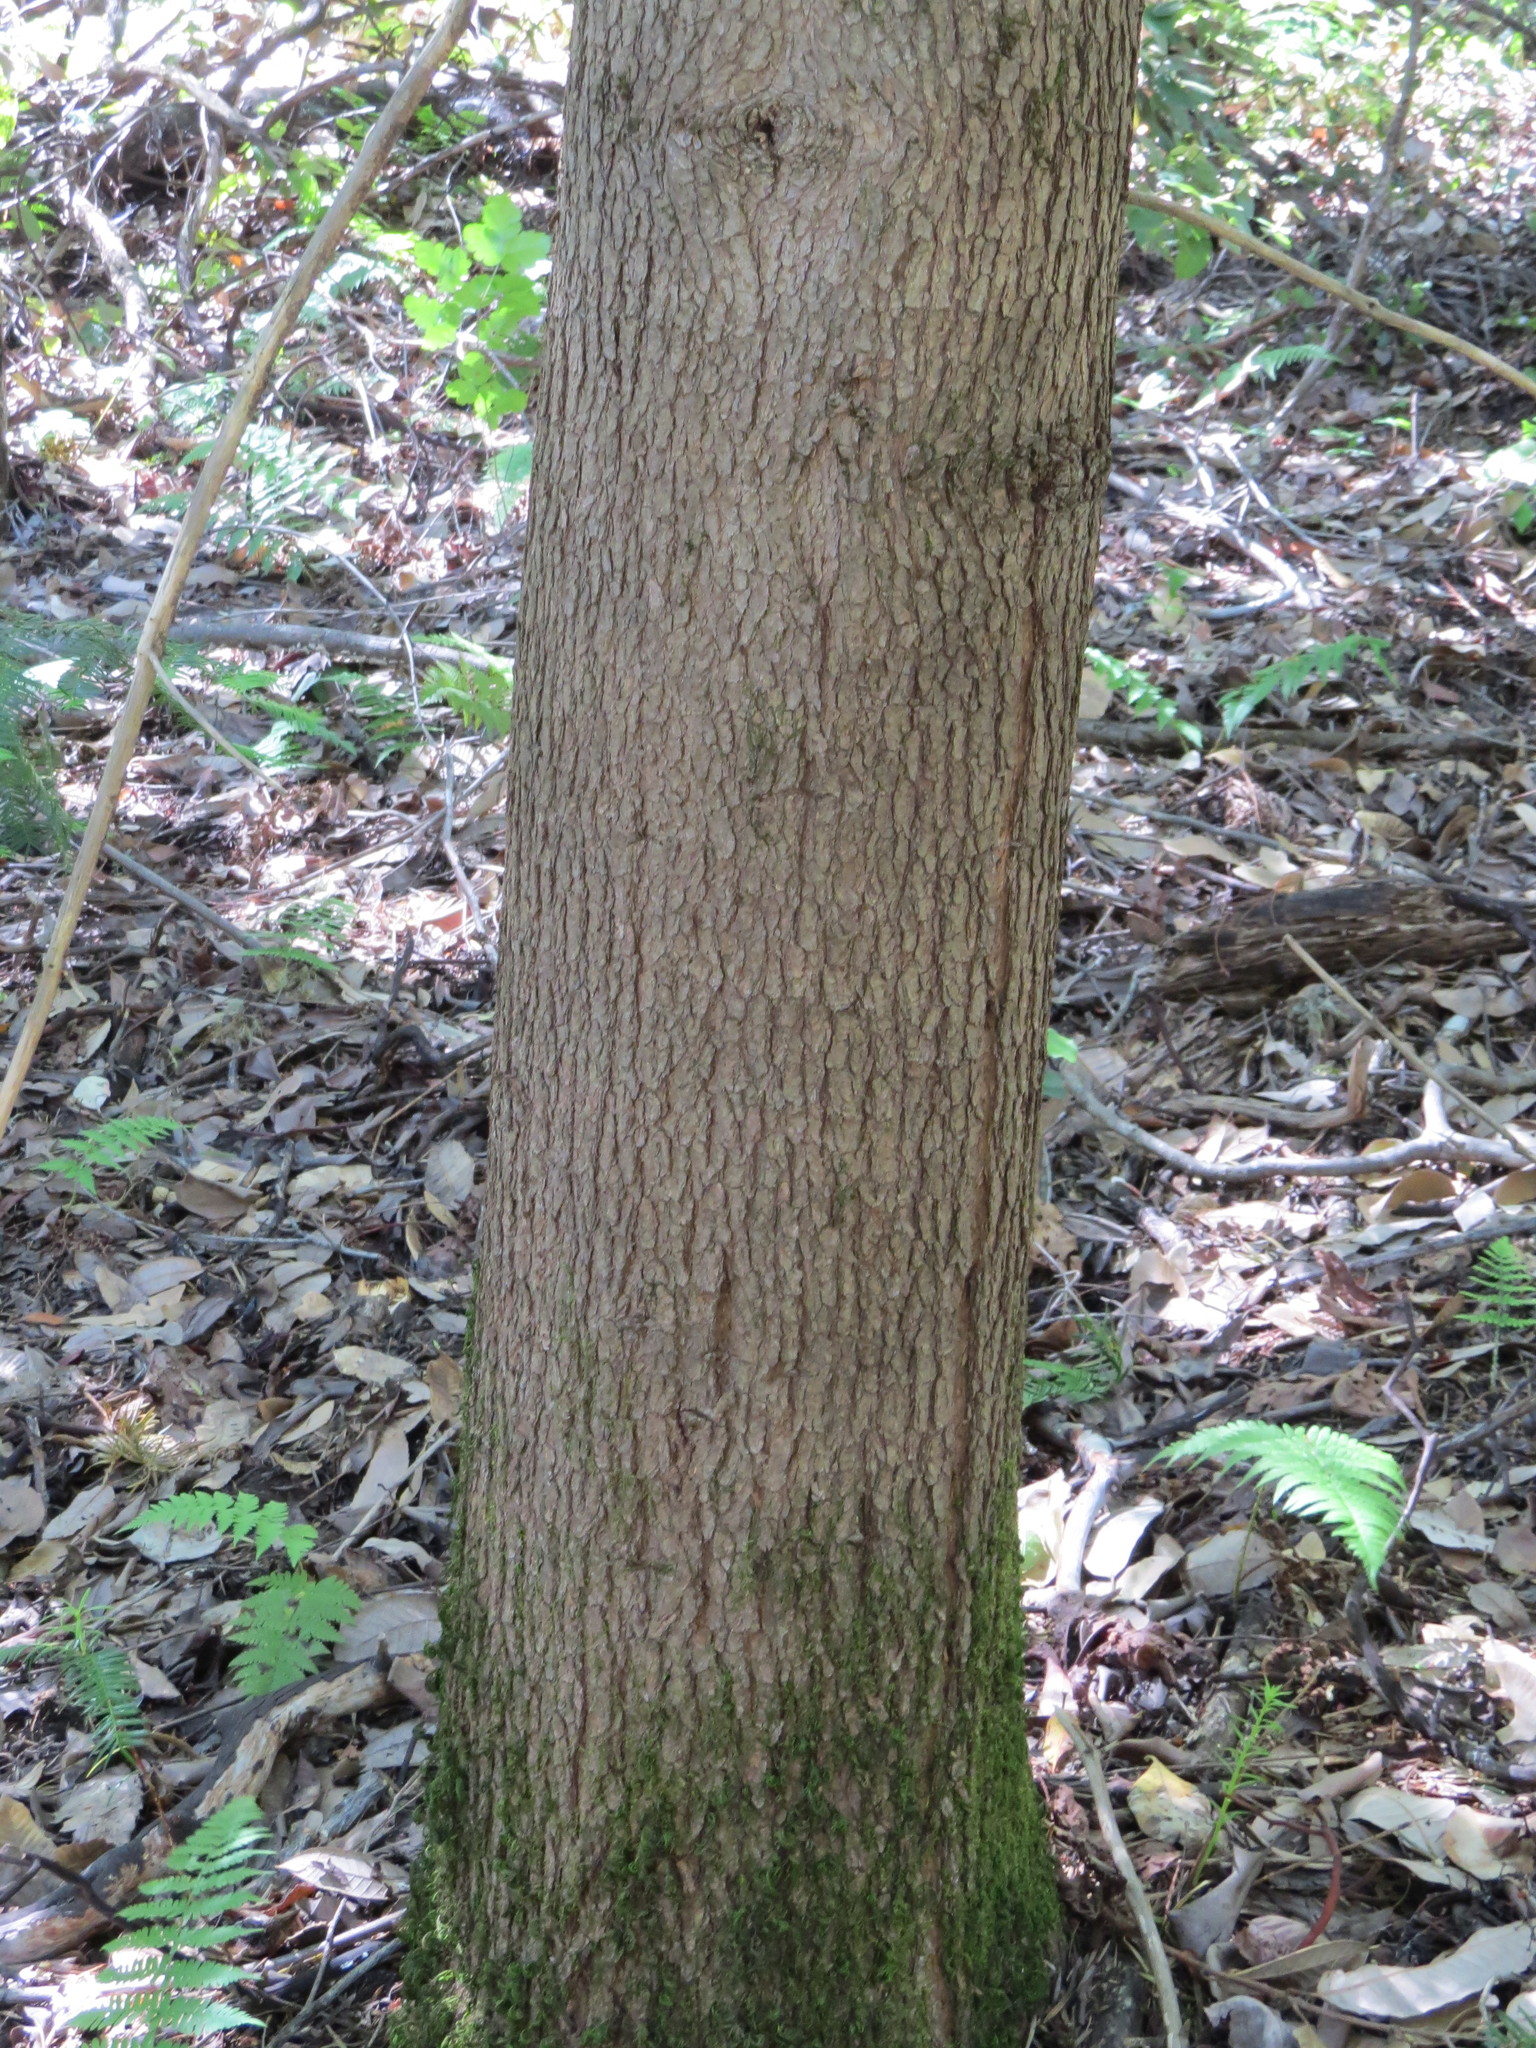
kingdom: Plantae
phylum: Tracheophyta
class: Pinopsida
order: Pinales
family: Taxaceae
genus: Torreya
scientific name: Torreya californica
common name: California torreya
